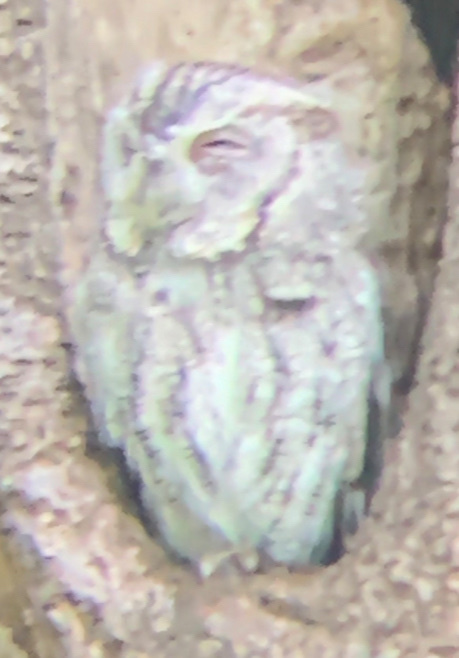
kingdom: Animalia
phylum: Chordata
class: Aves
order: Strigiformes
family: Strigidae
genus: Megascops
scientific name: Megascops asio
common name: Eastern screech-owl
